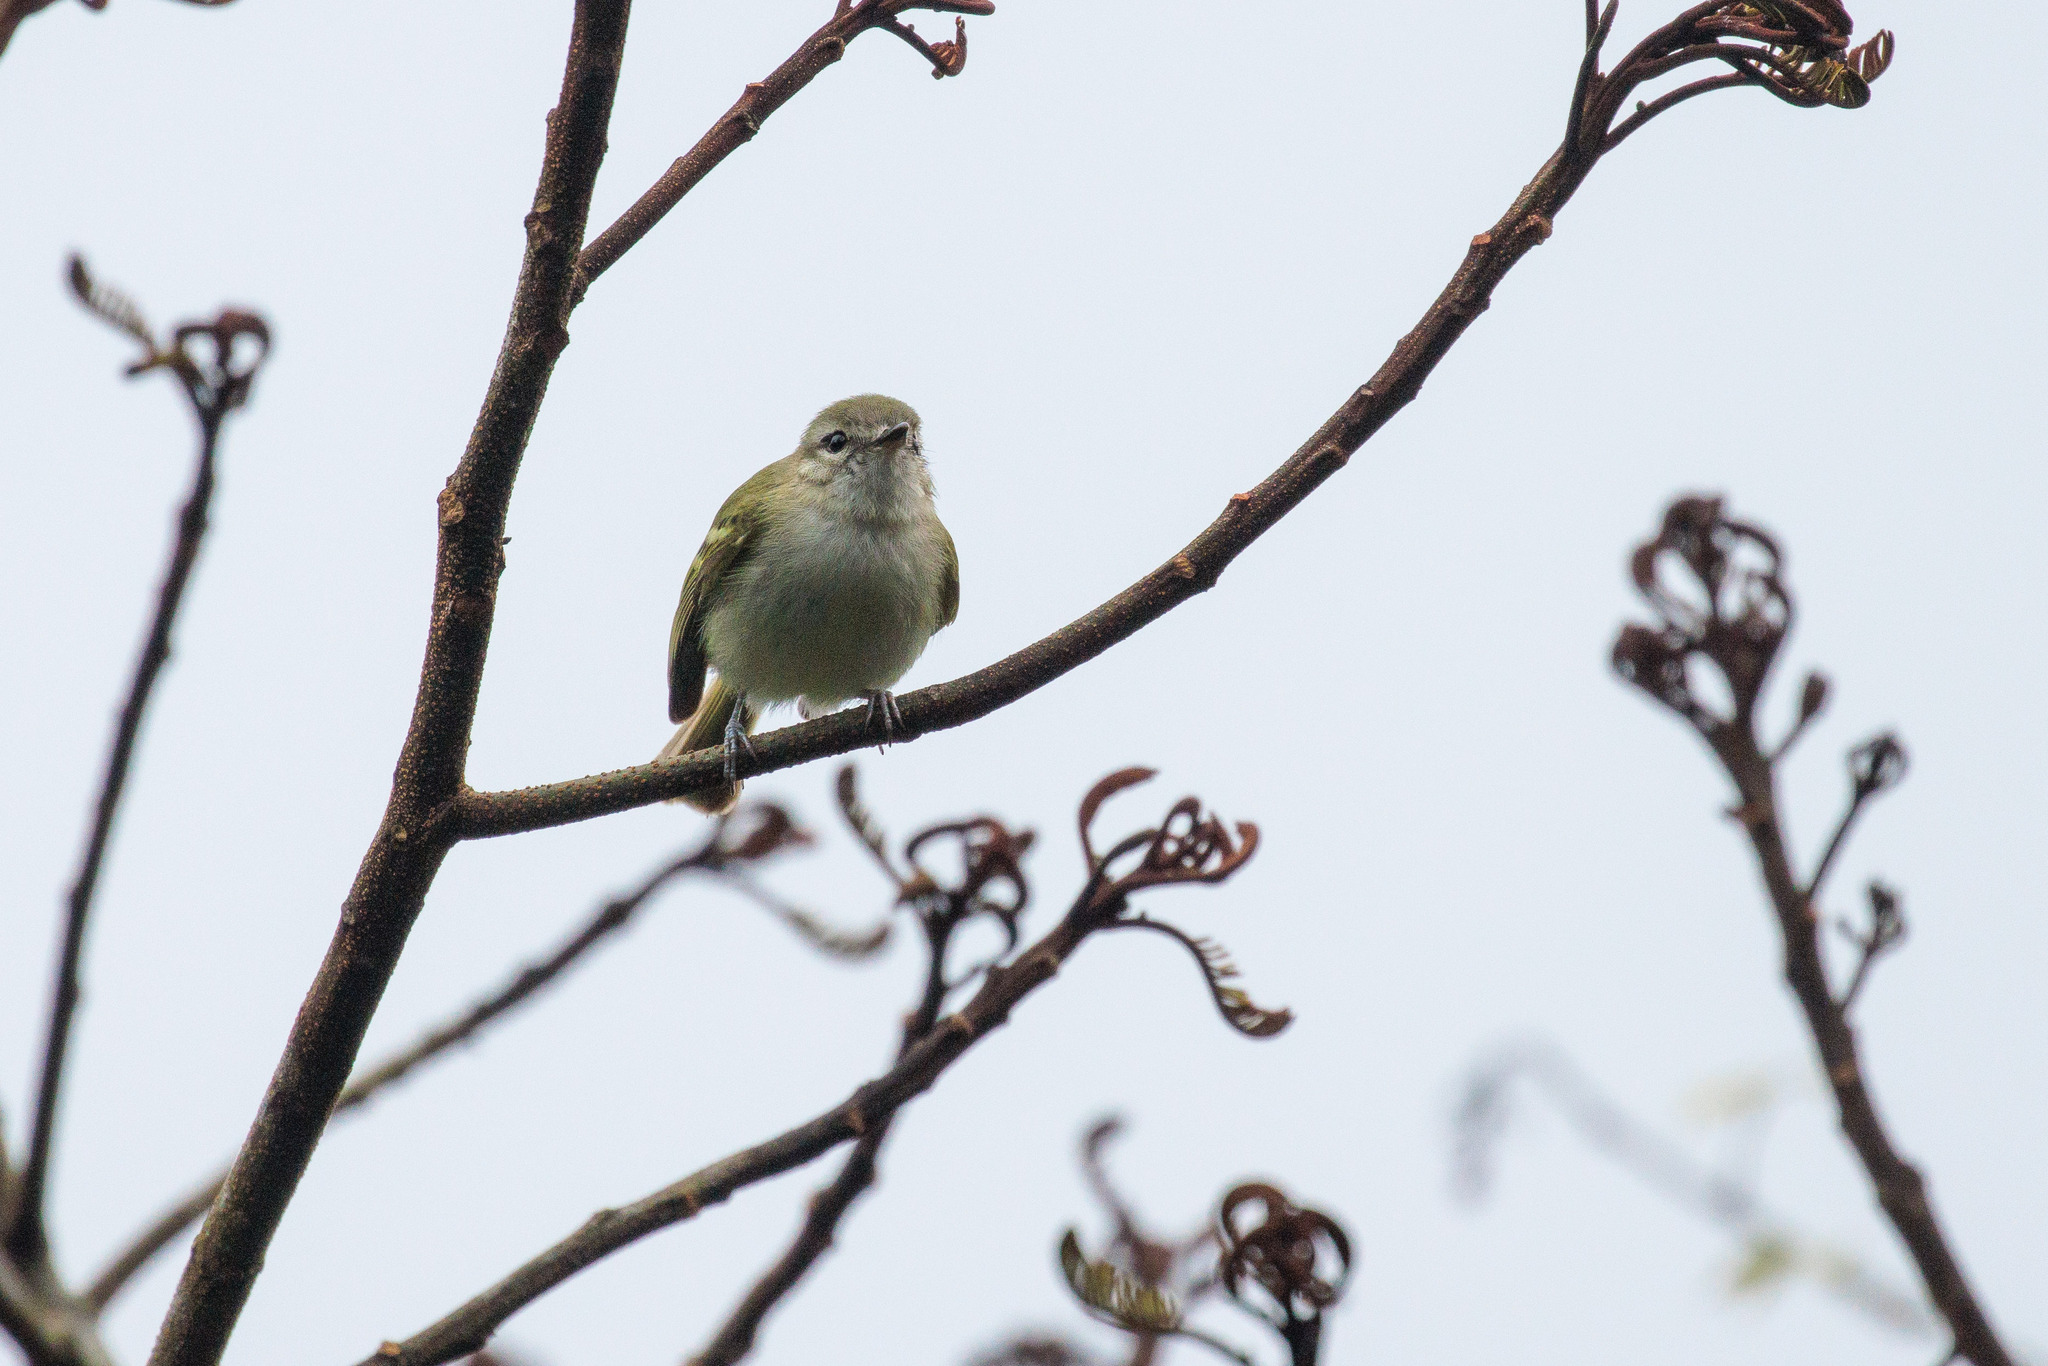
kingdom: Animalia
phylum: Chordata
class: Aves
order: Passeriformes
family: Tyrannidae
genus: Phylloscartes
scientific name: Phylloscartes ceciliae
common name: Alagoas tyrannulet
